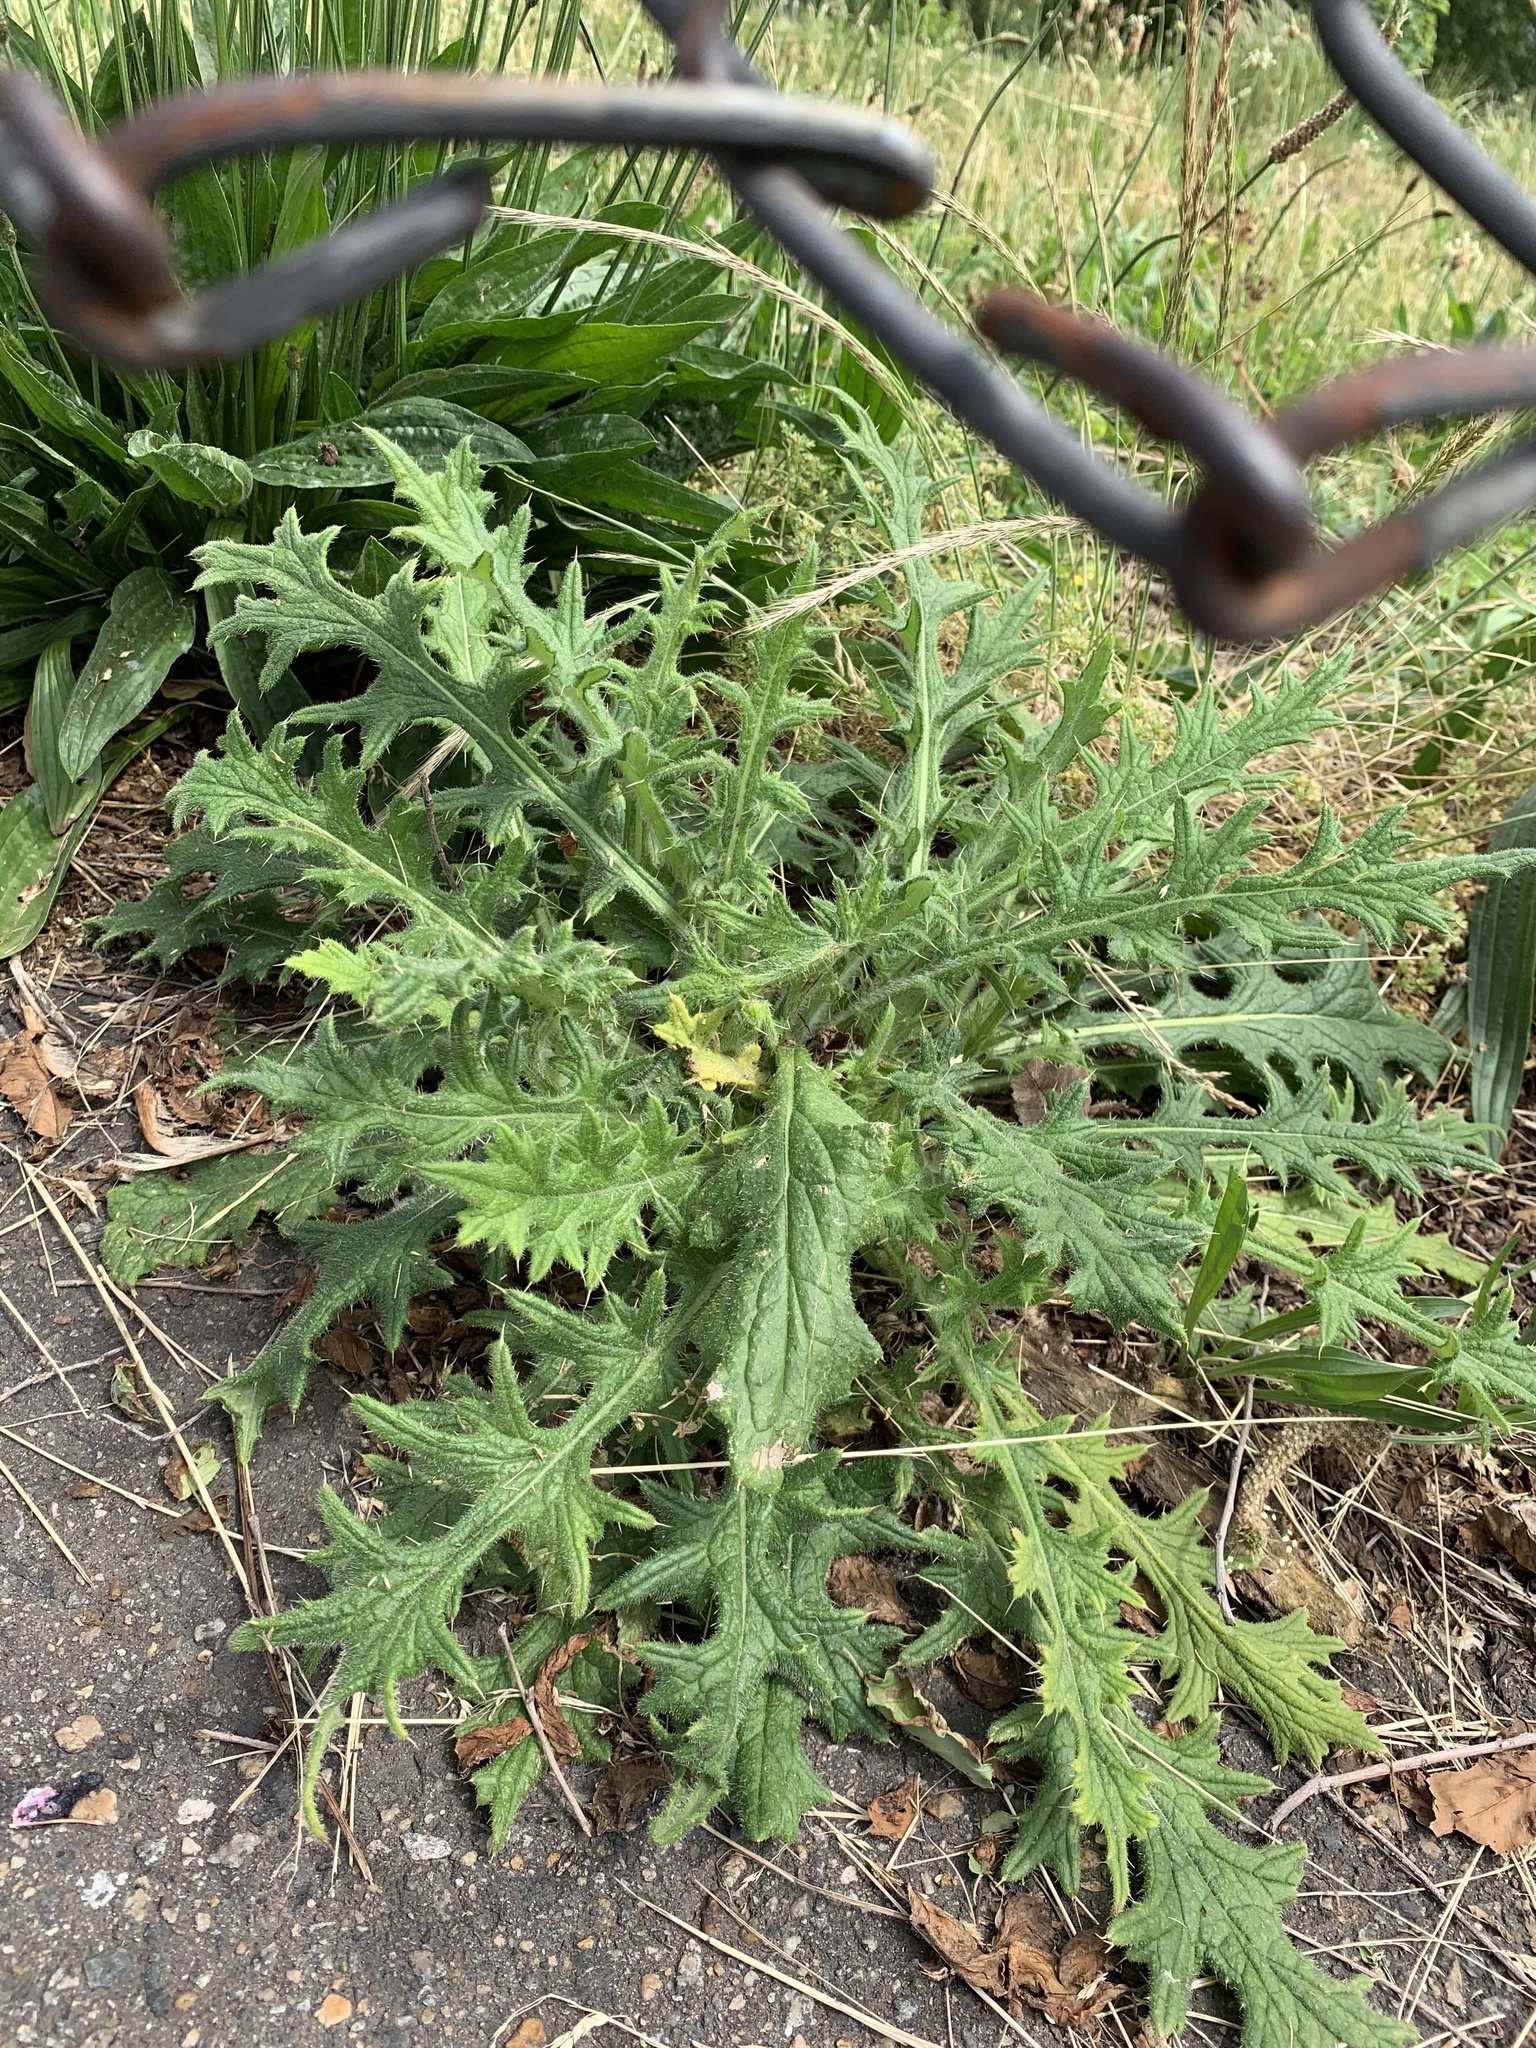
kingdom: Plantae
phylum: Tracheophyta
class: Magnoliopsida
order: Asterales
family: Asteraceae
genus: Cirsium
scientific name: Cirsium vulgare
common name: Bull thistle
